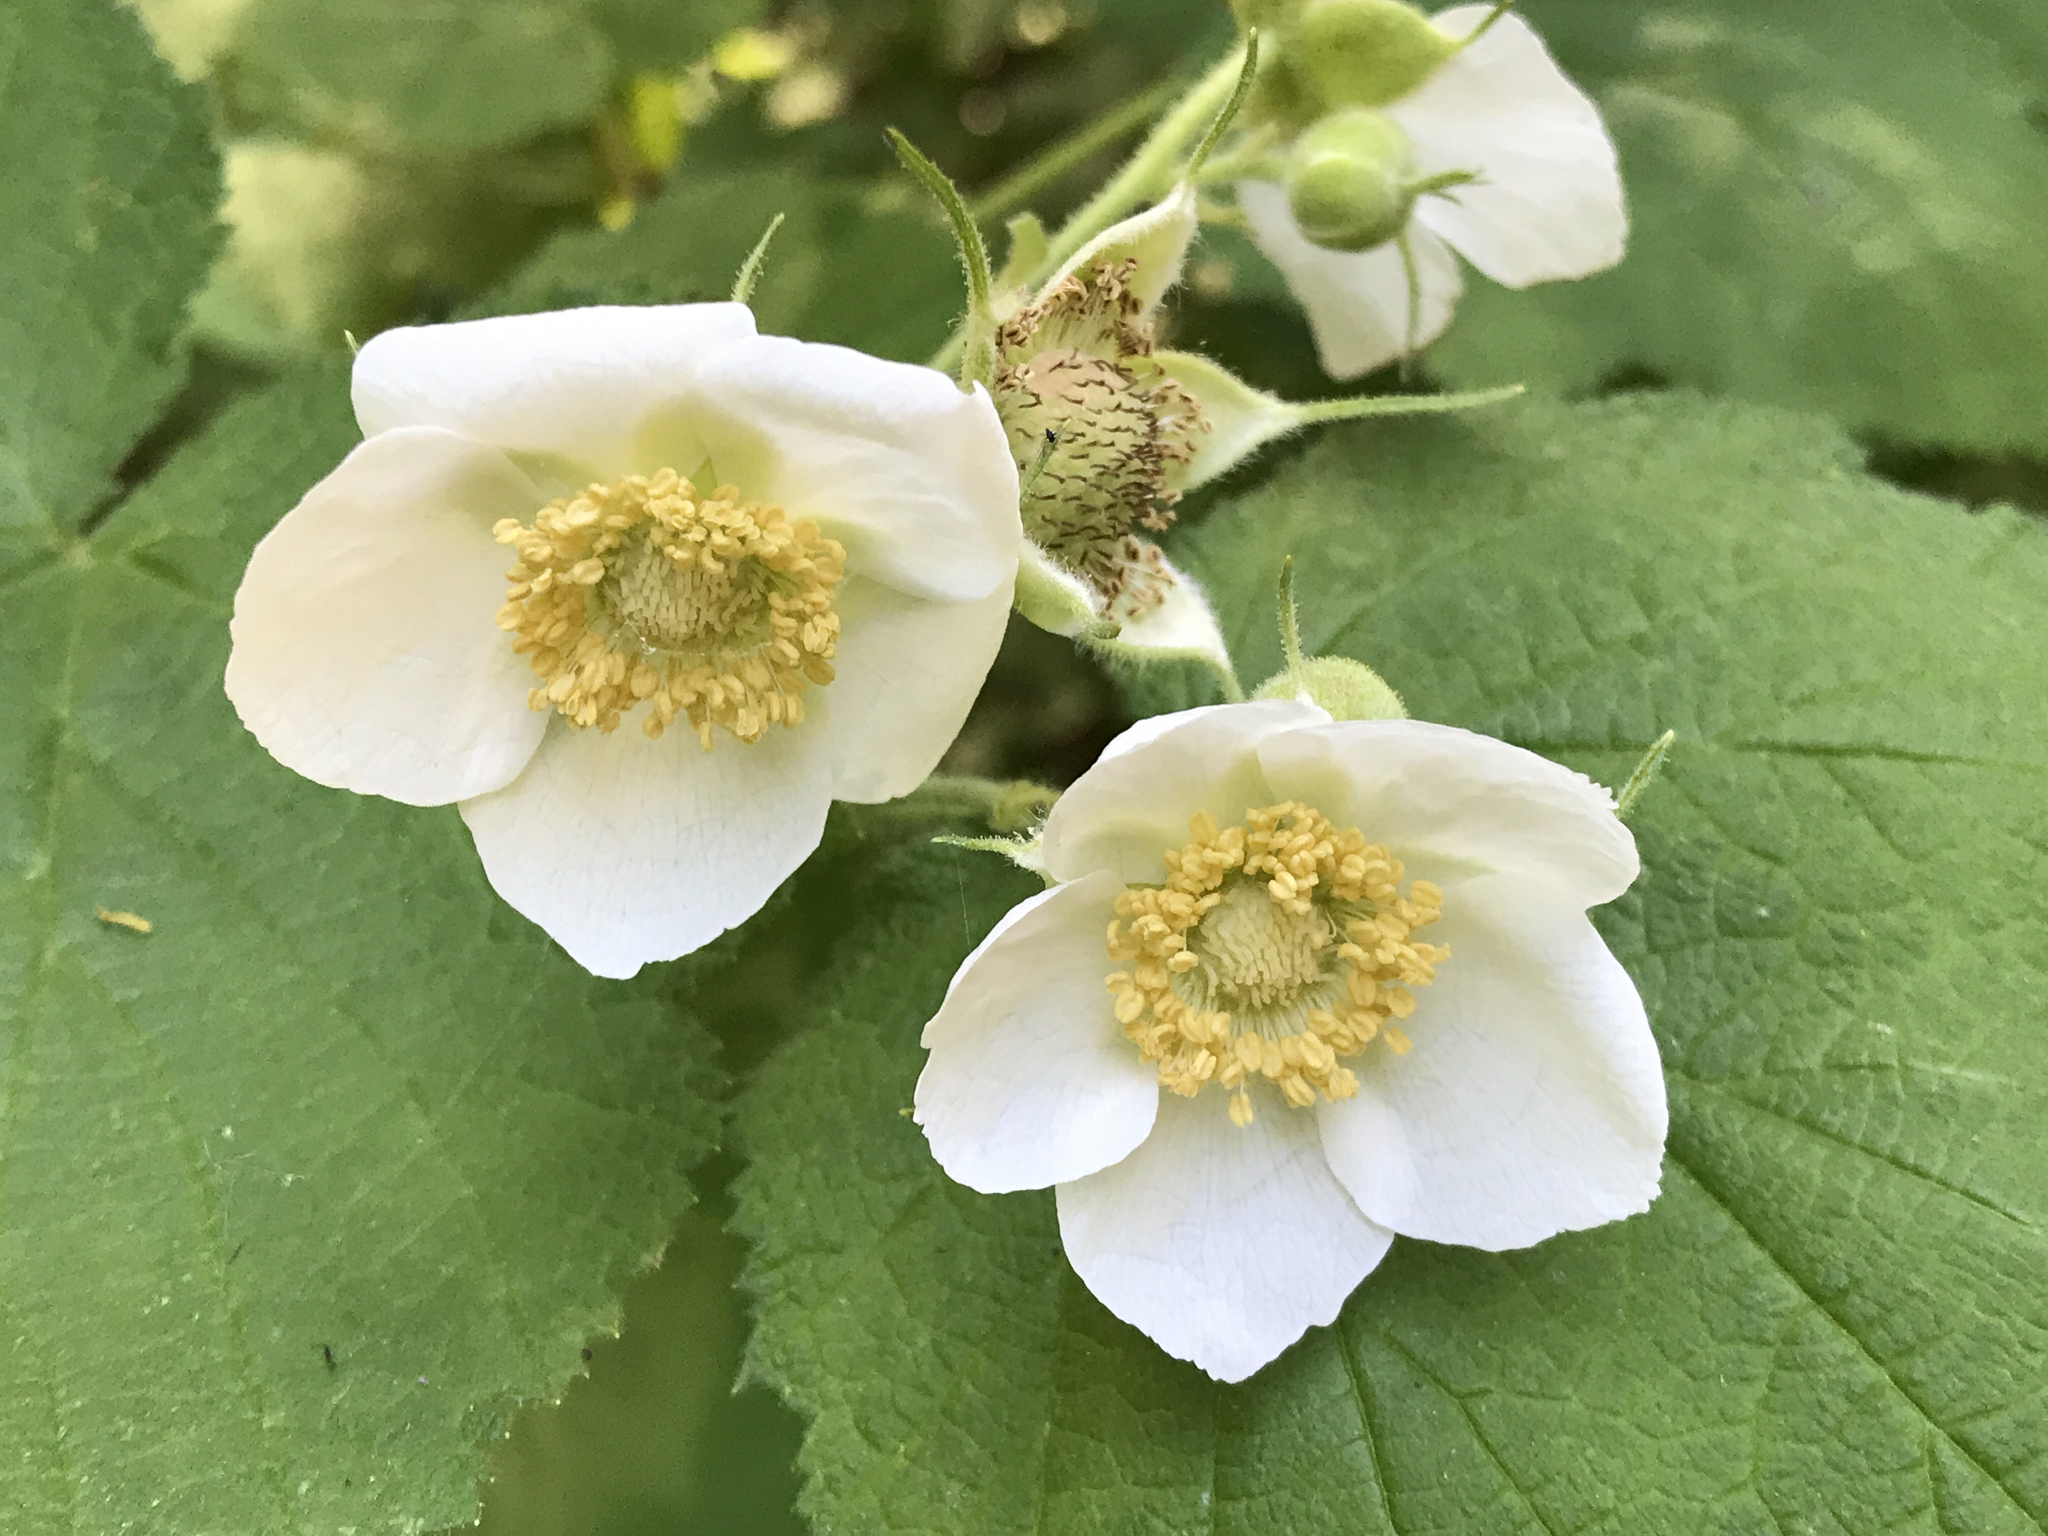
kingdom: Plantae
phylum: Tracheophyta
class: Magnoliopsida
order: Rosales
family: Rosaceae
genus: Rubus
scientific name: Rubus parviflorus
